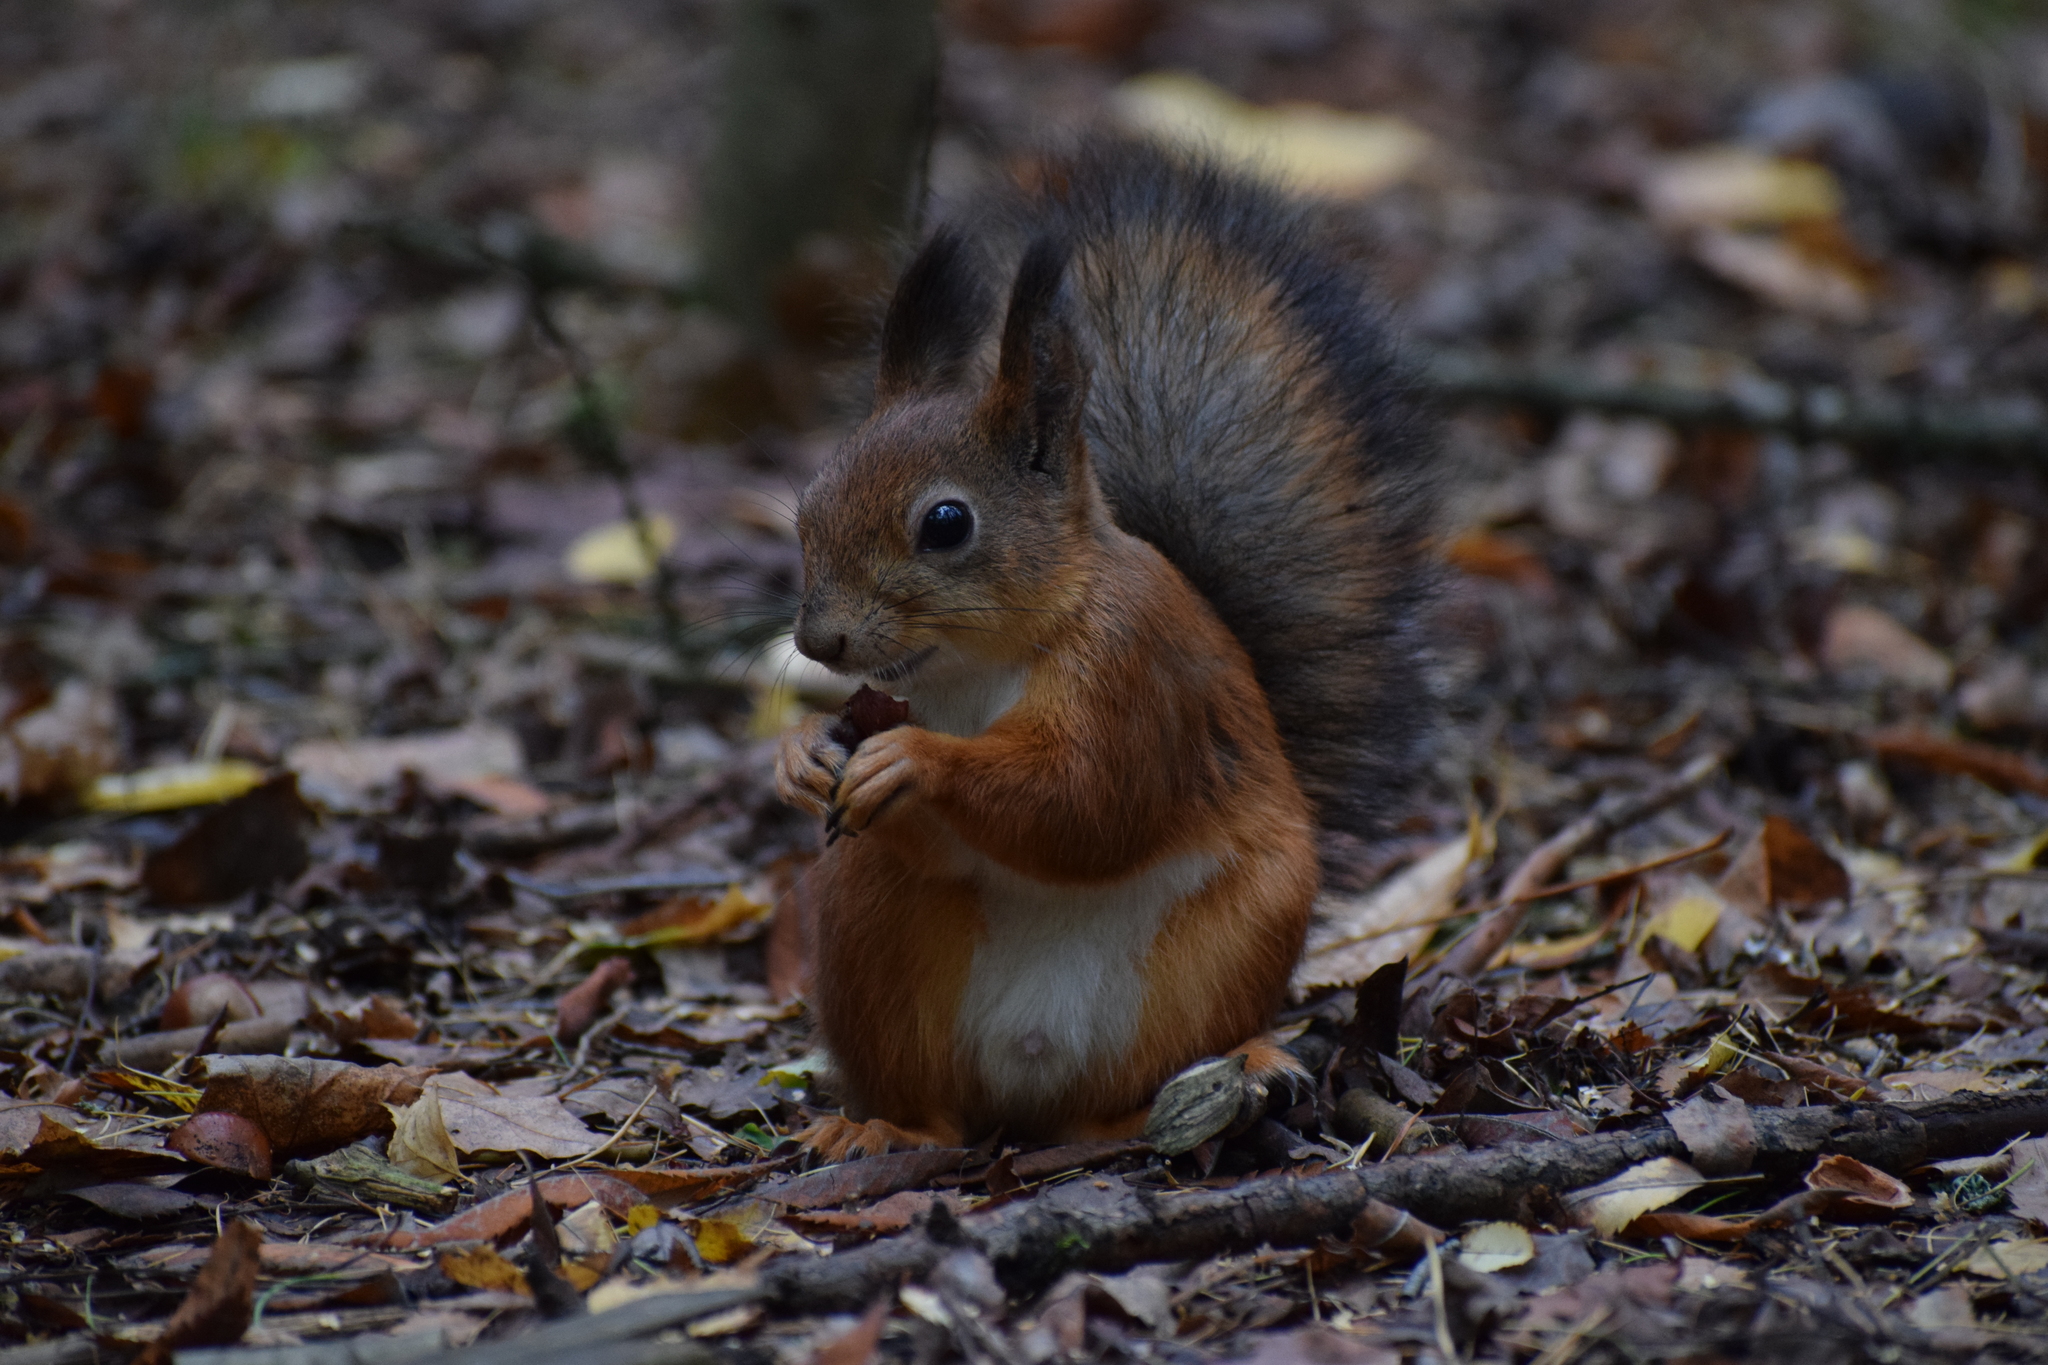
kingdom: Animalia
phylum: Chordata
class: Mammalia
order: Rodentia
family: Sciuridae
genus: Sciurus
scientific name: Sciurus vulgaris
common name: Eurasian red squirrel
